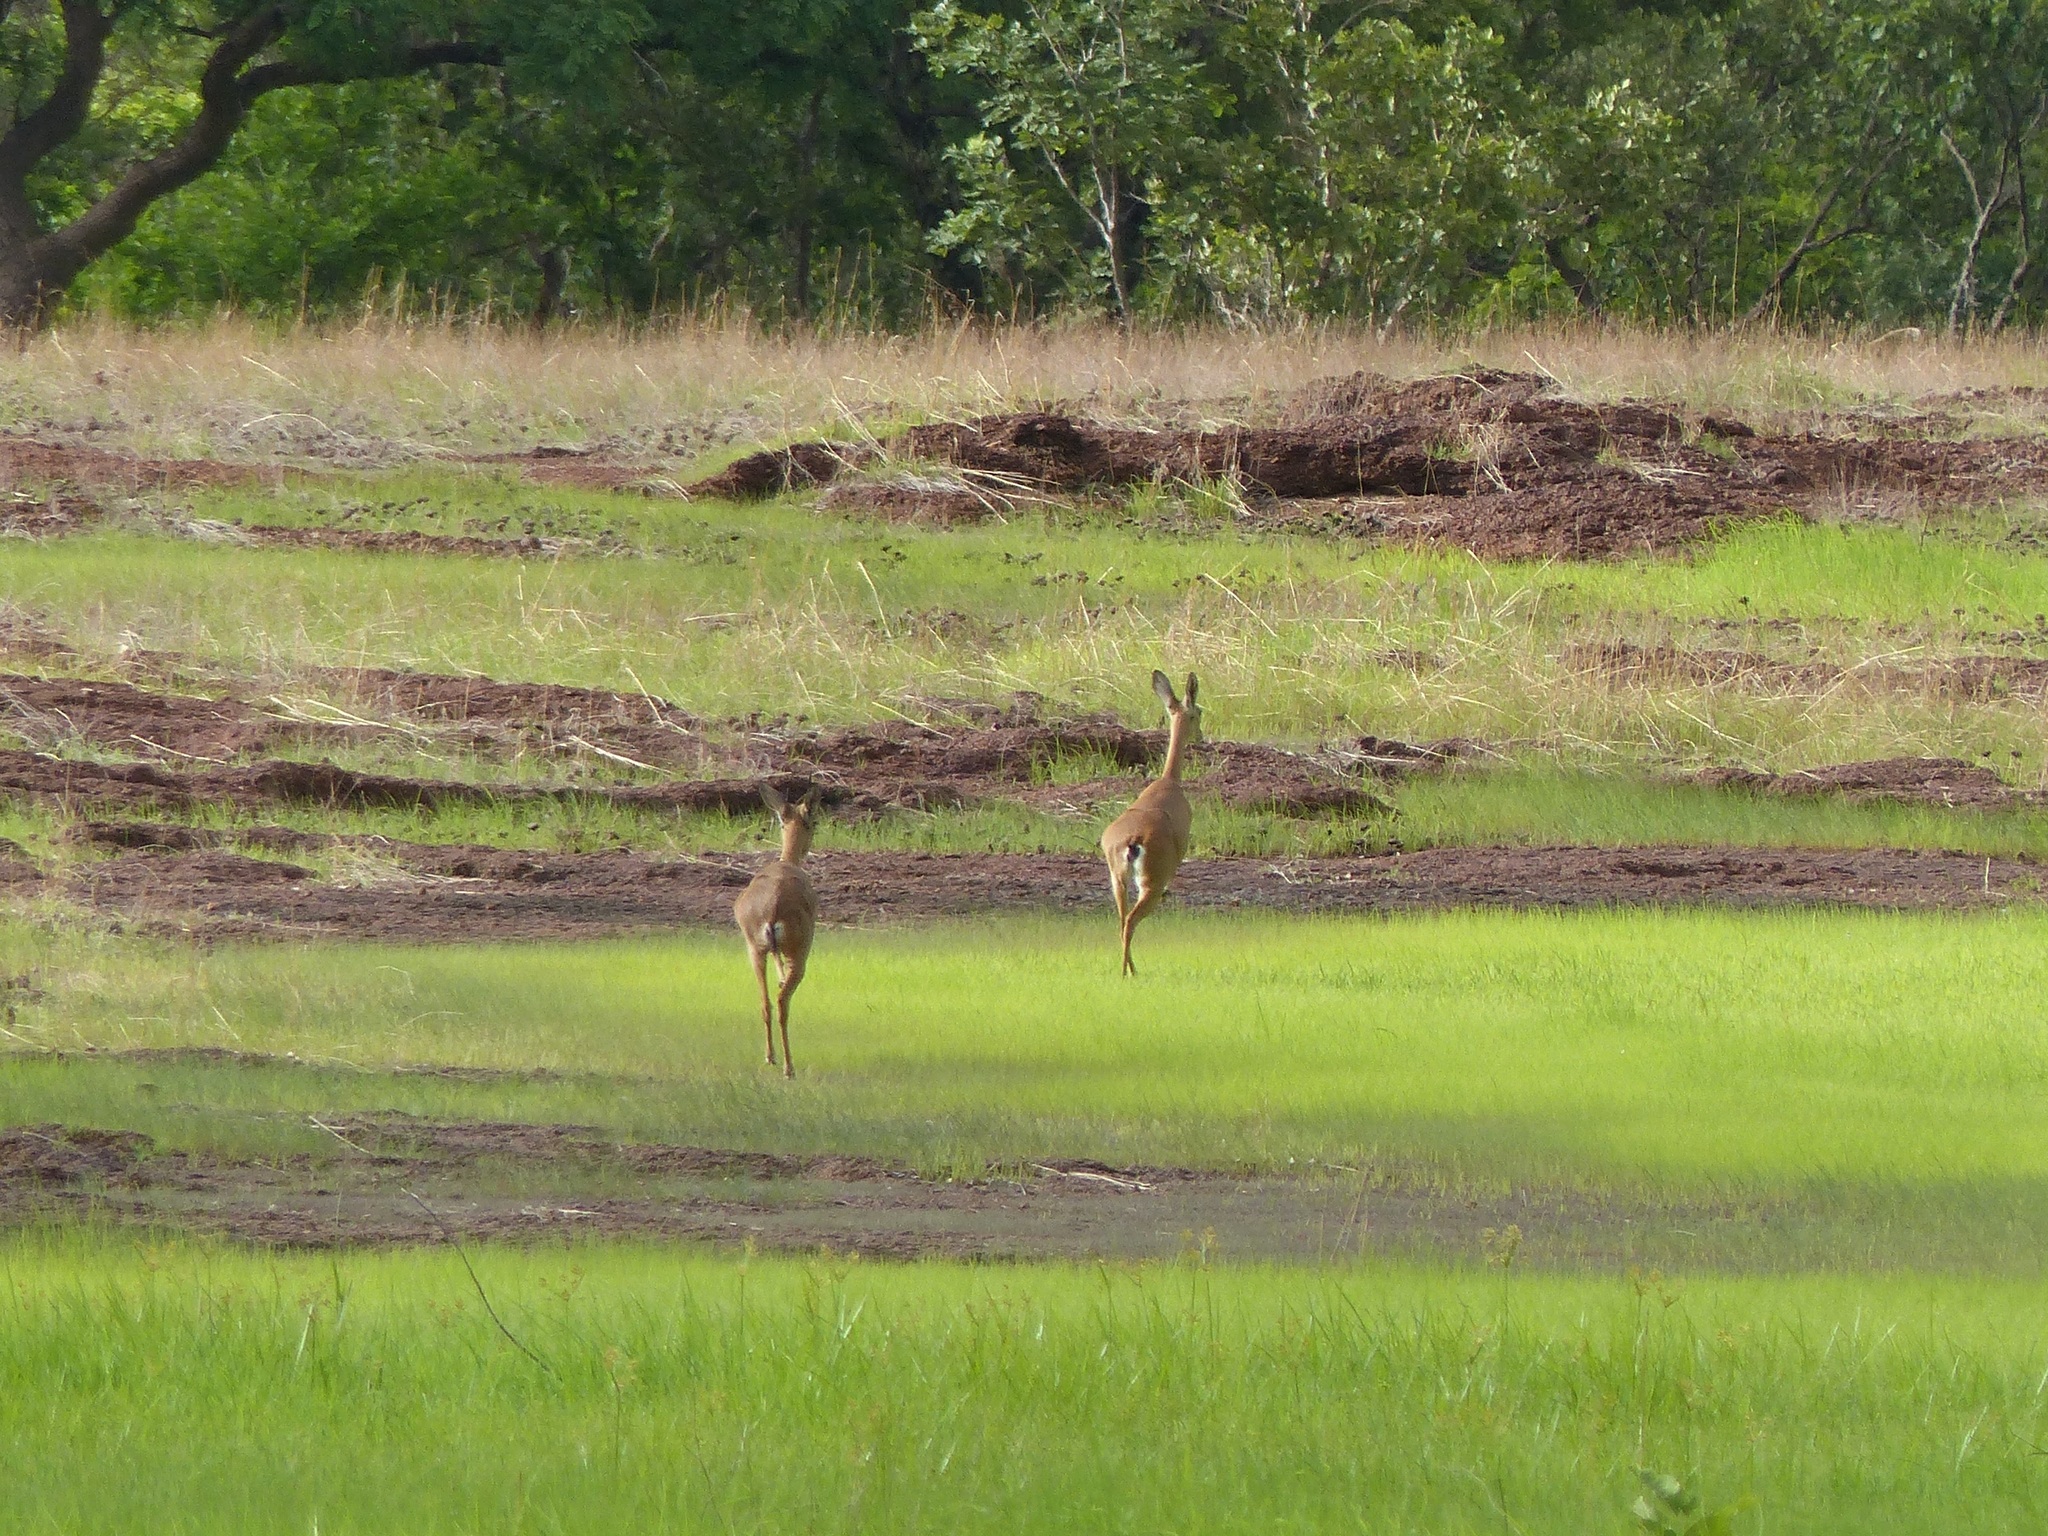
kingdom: Animalia
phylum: Chordata
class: Mammalia
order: Artiodactyla
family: Bovidae
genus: Ourebia
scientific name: Ourebia ourebi
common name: Oribi
